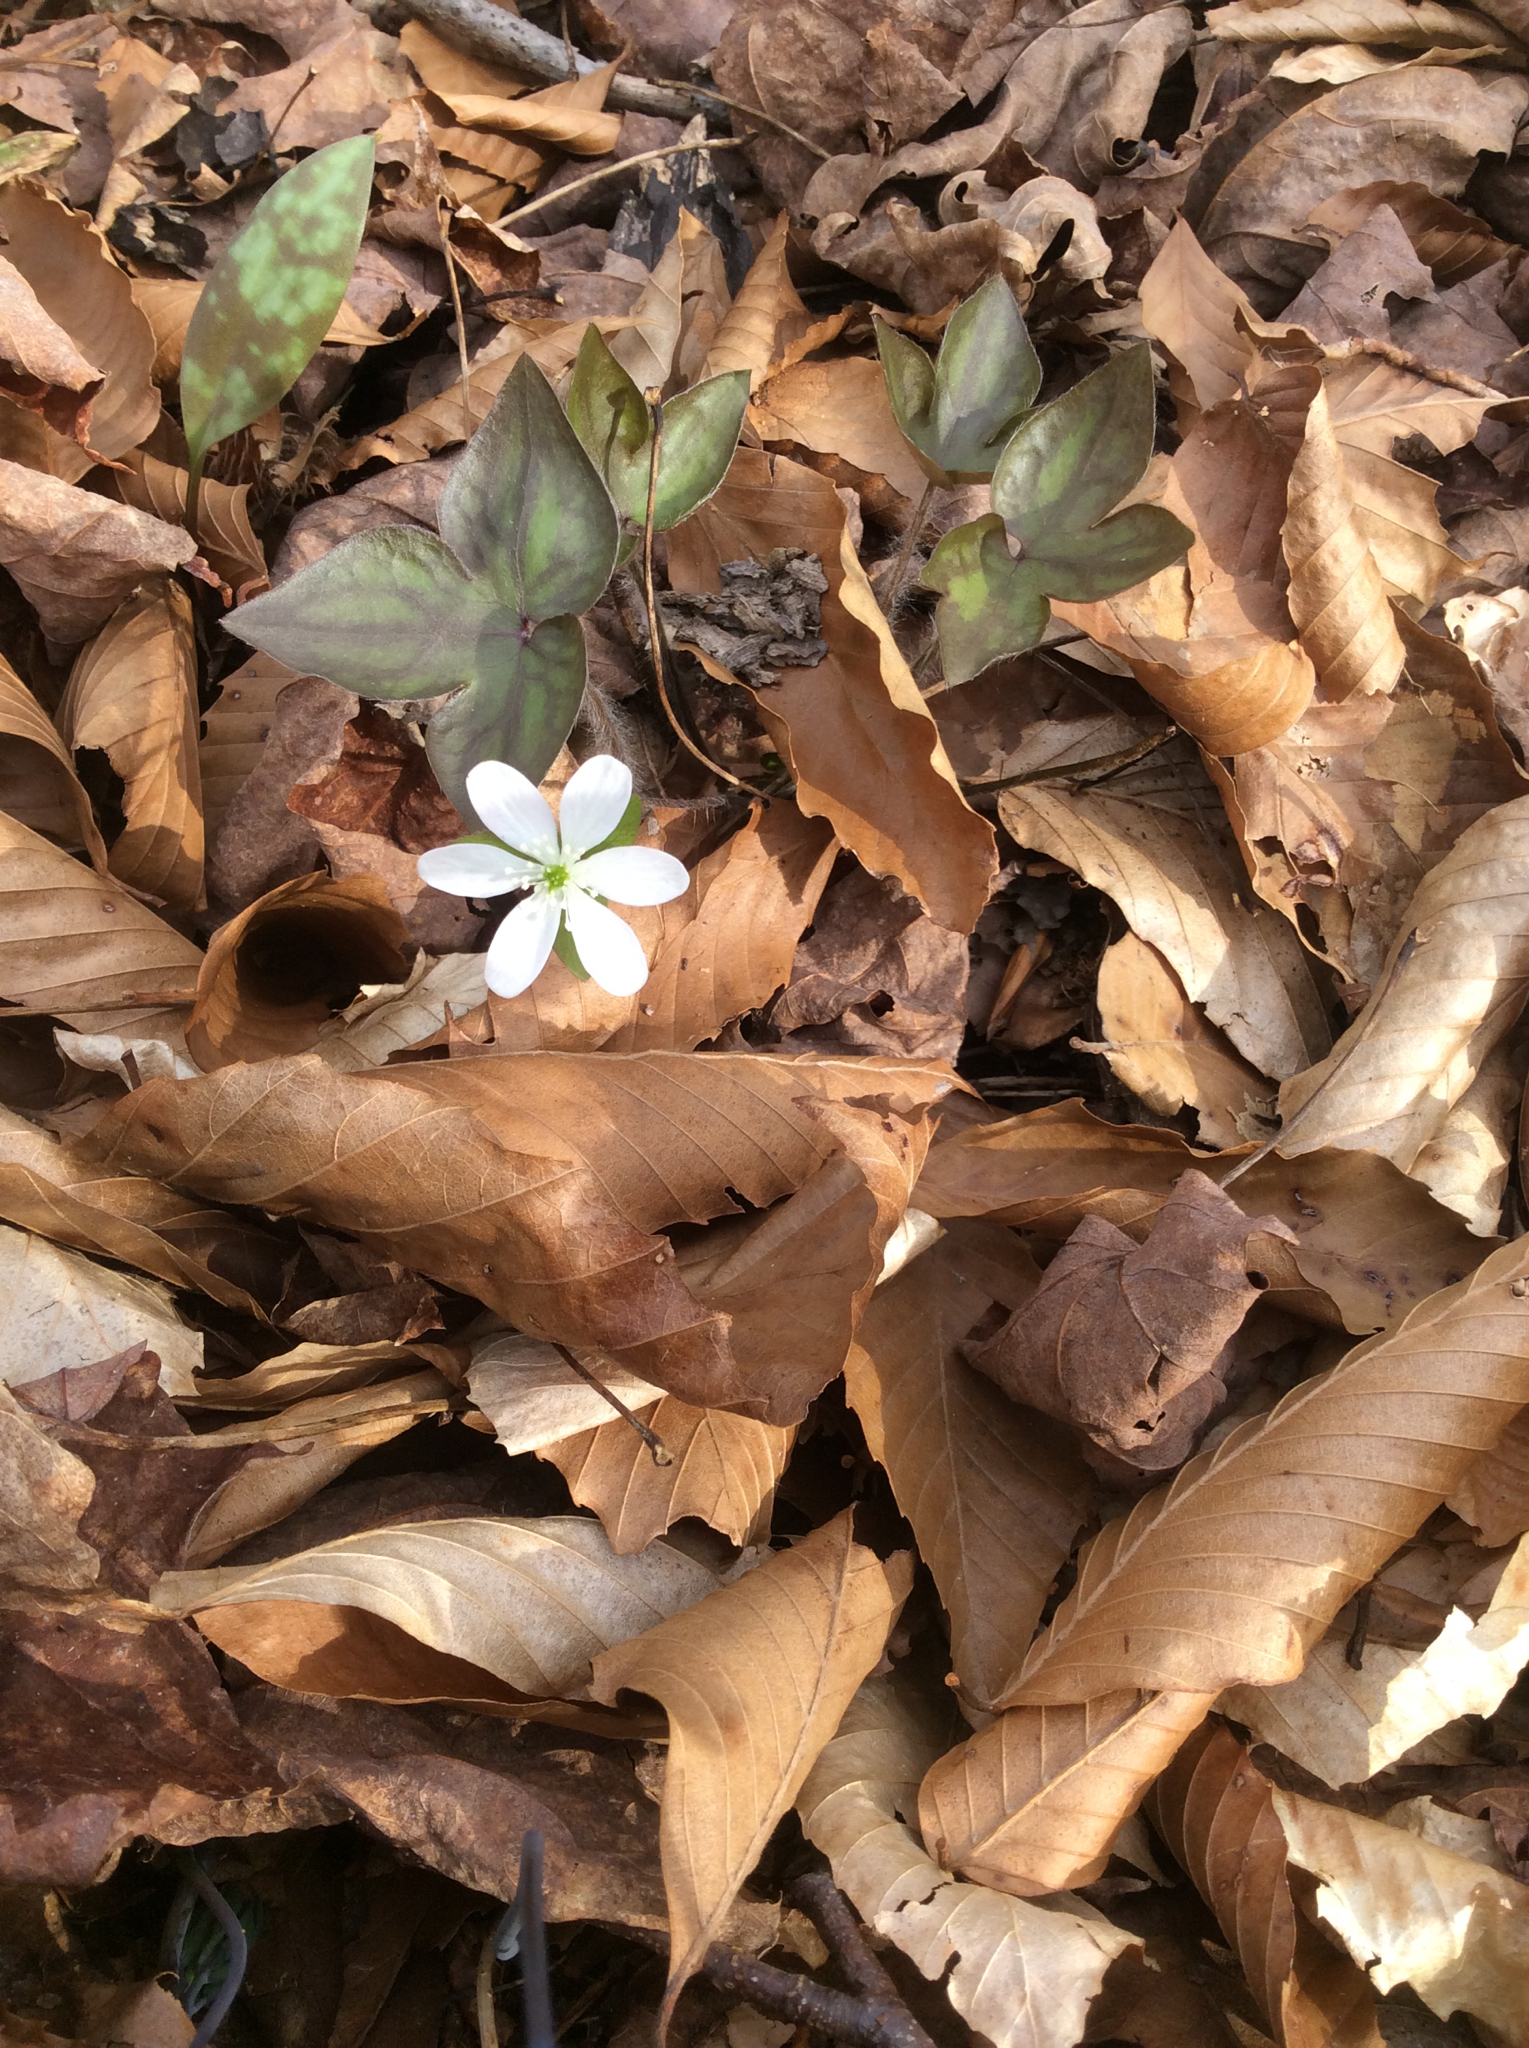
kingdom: Plantae
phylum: Tracheophyta
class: Magnoliopsida
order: Ranunculales
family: Ranunculaceae
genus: Hepatica
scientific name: Hepatica acutiloba
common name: Sharp-lobed hepatica
